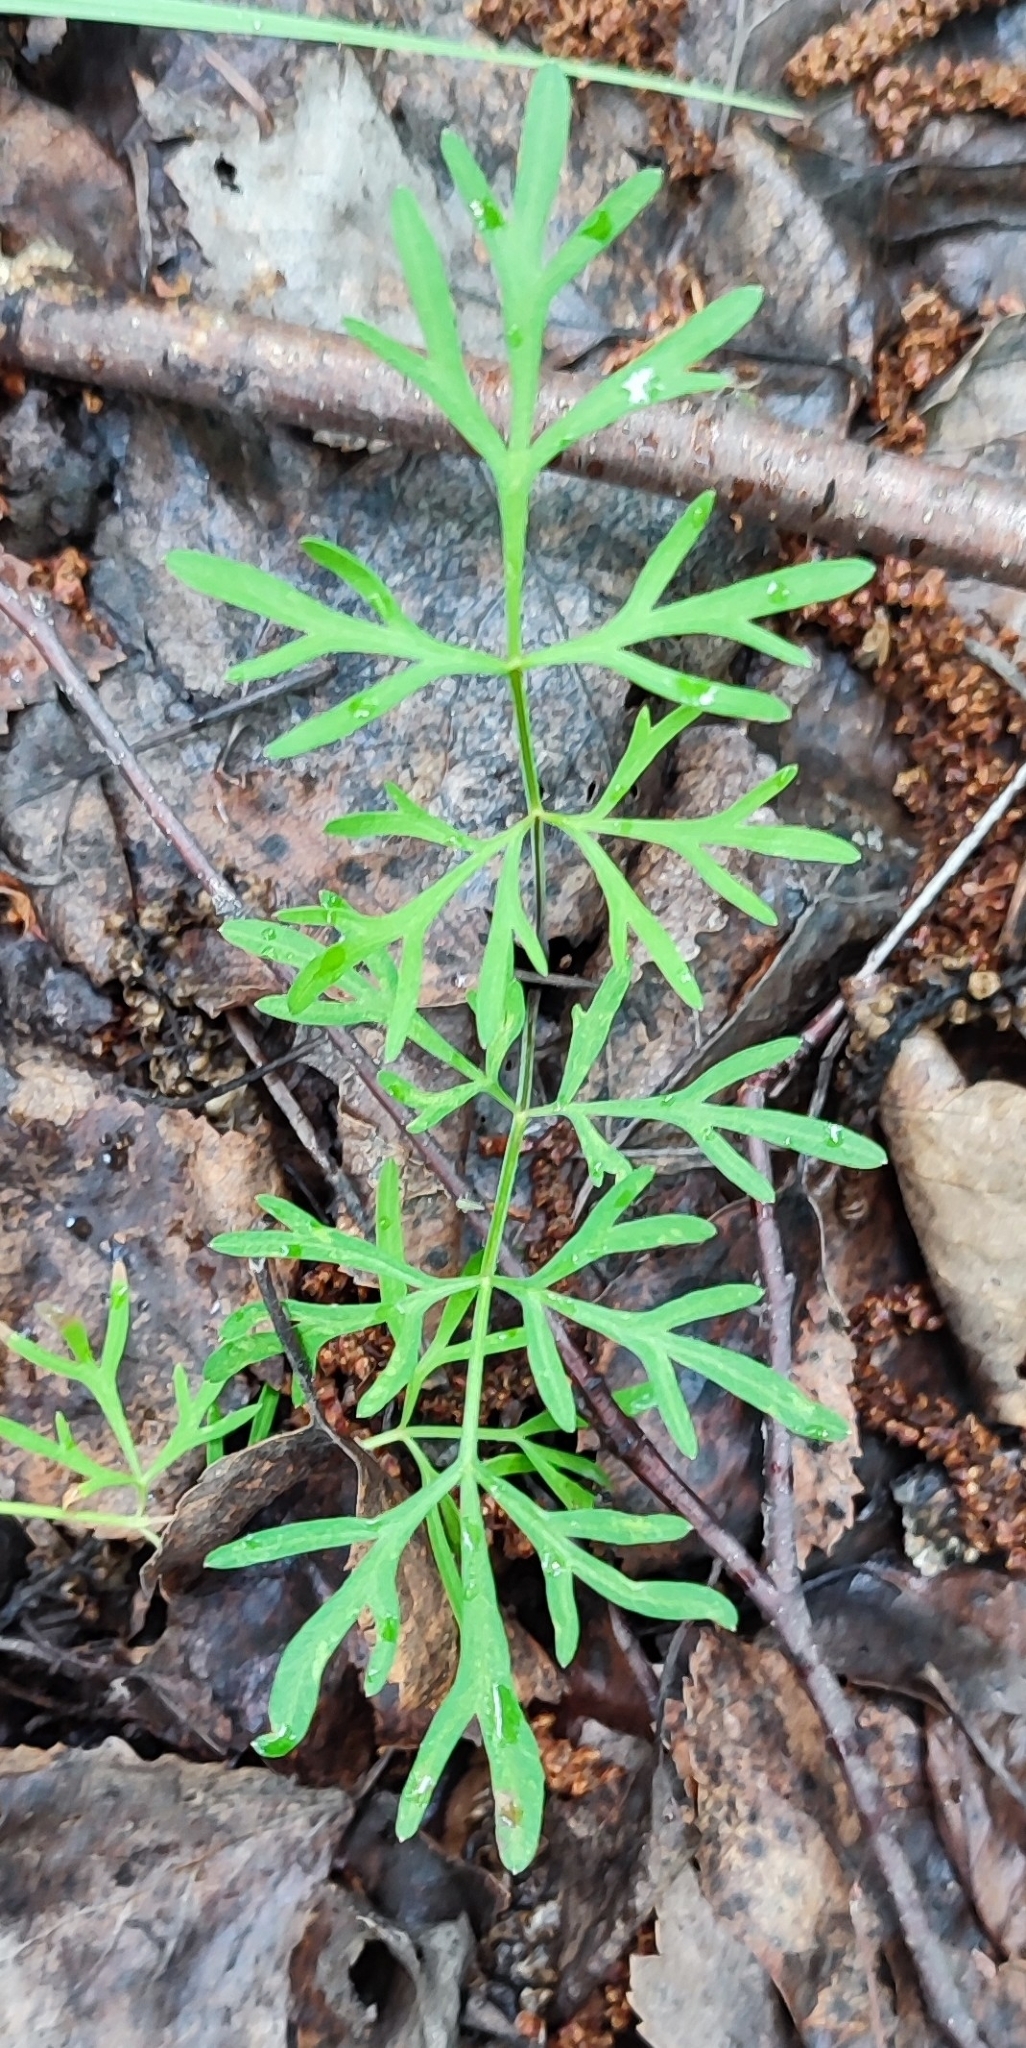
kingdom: Plantae
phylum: Tracheophyta
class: Magnoliopsida
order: Apiales
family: Apiaceae
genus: Kadenia
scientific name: Kadenia dubia
